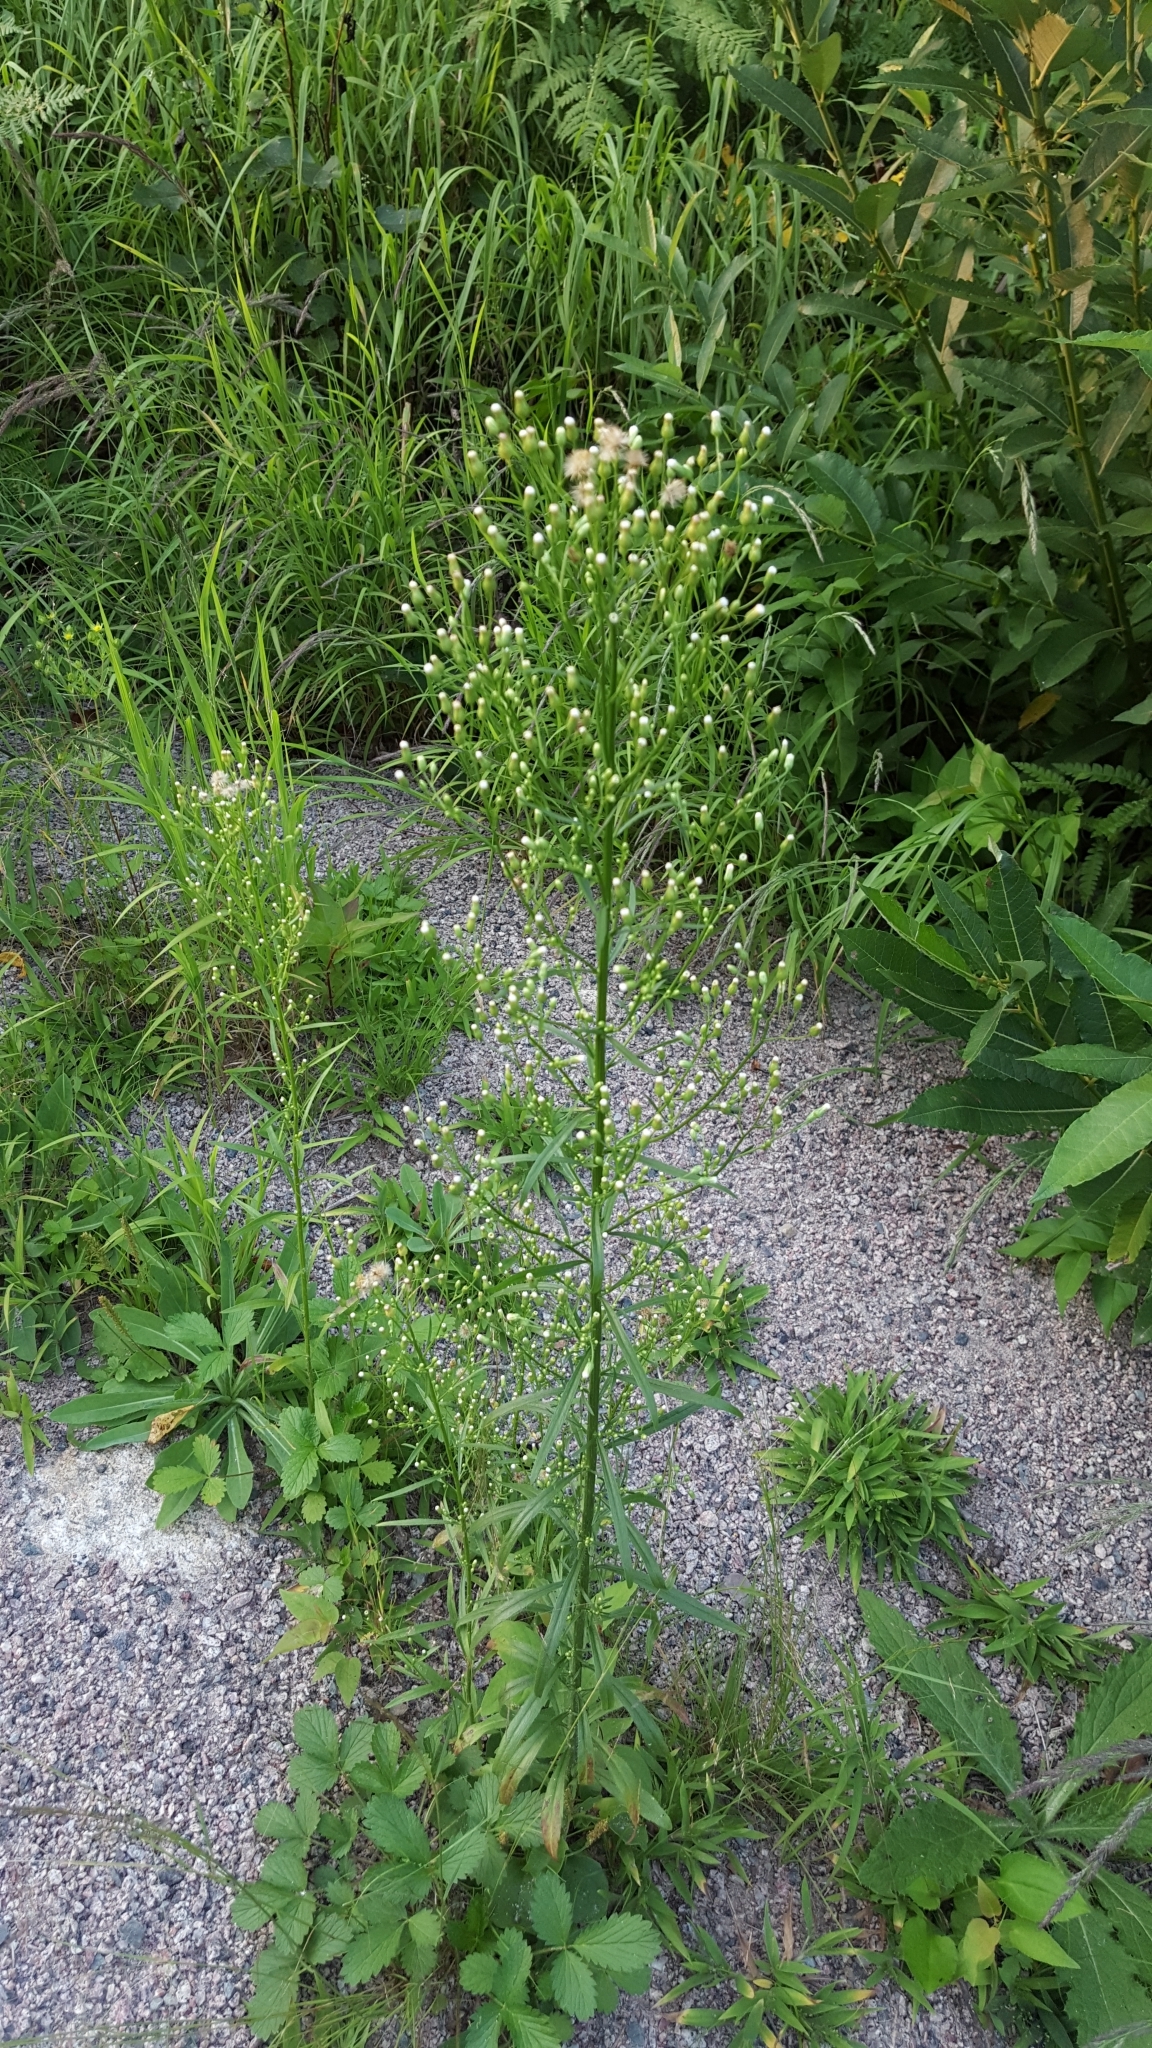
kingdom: Plantae
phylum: Tracheophyta
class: Magnoliopsida
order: Asterales
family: Asteraceae
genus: Erigeron
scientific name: Erigeron canadensis
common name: Canadian fleabane
